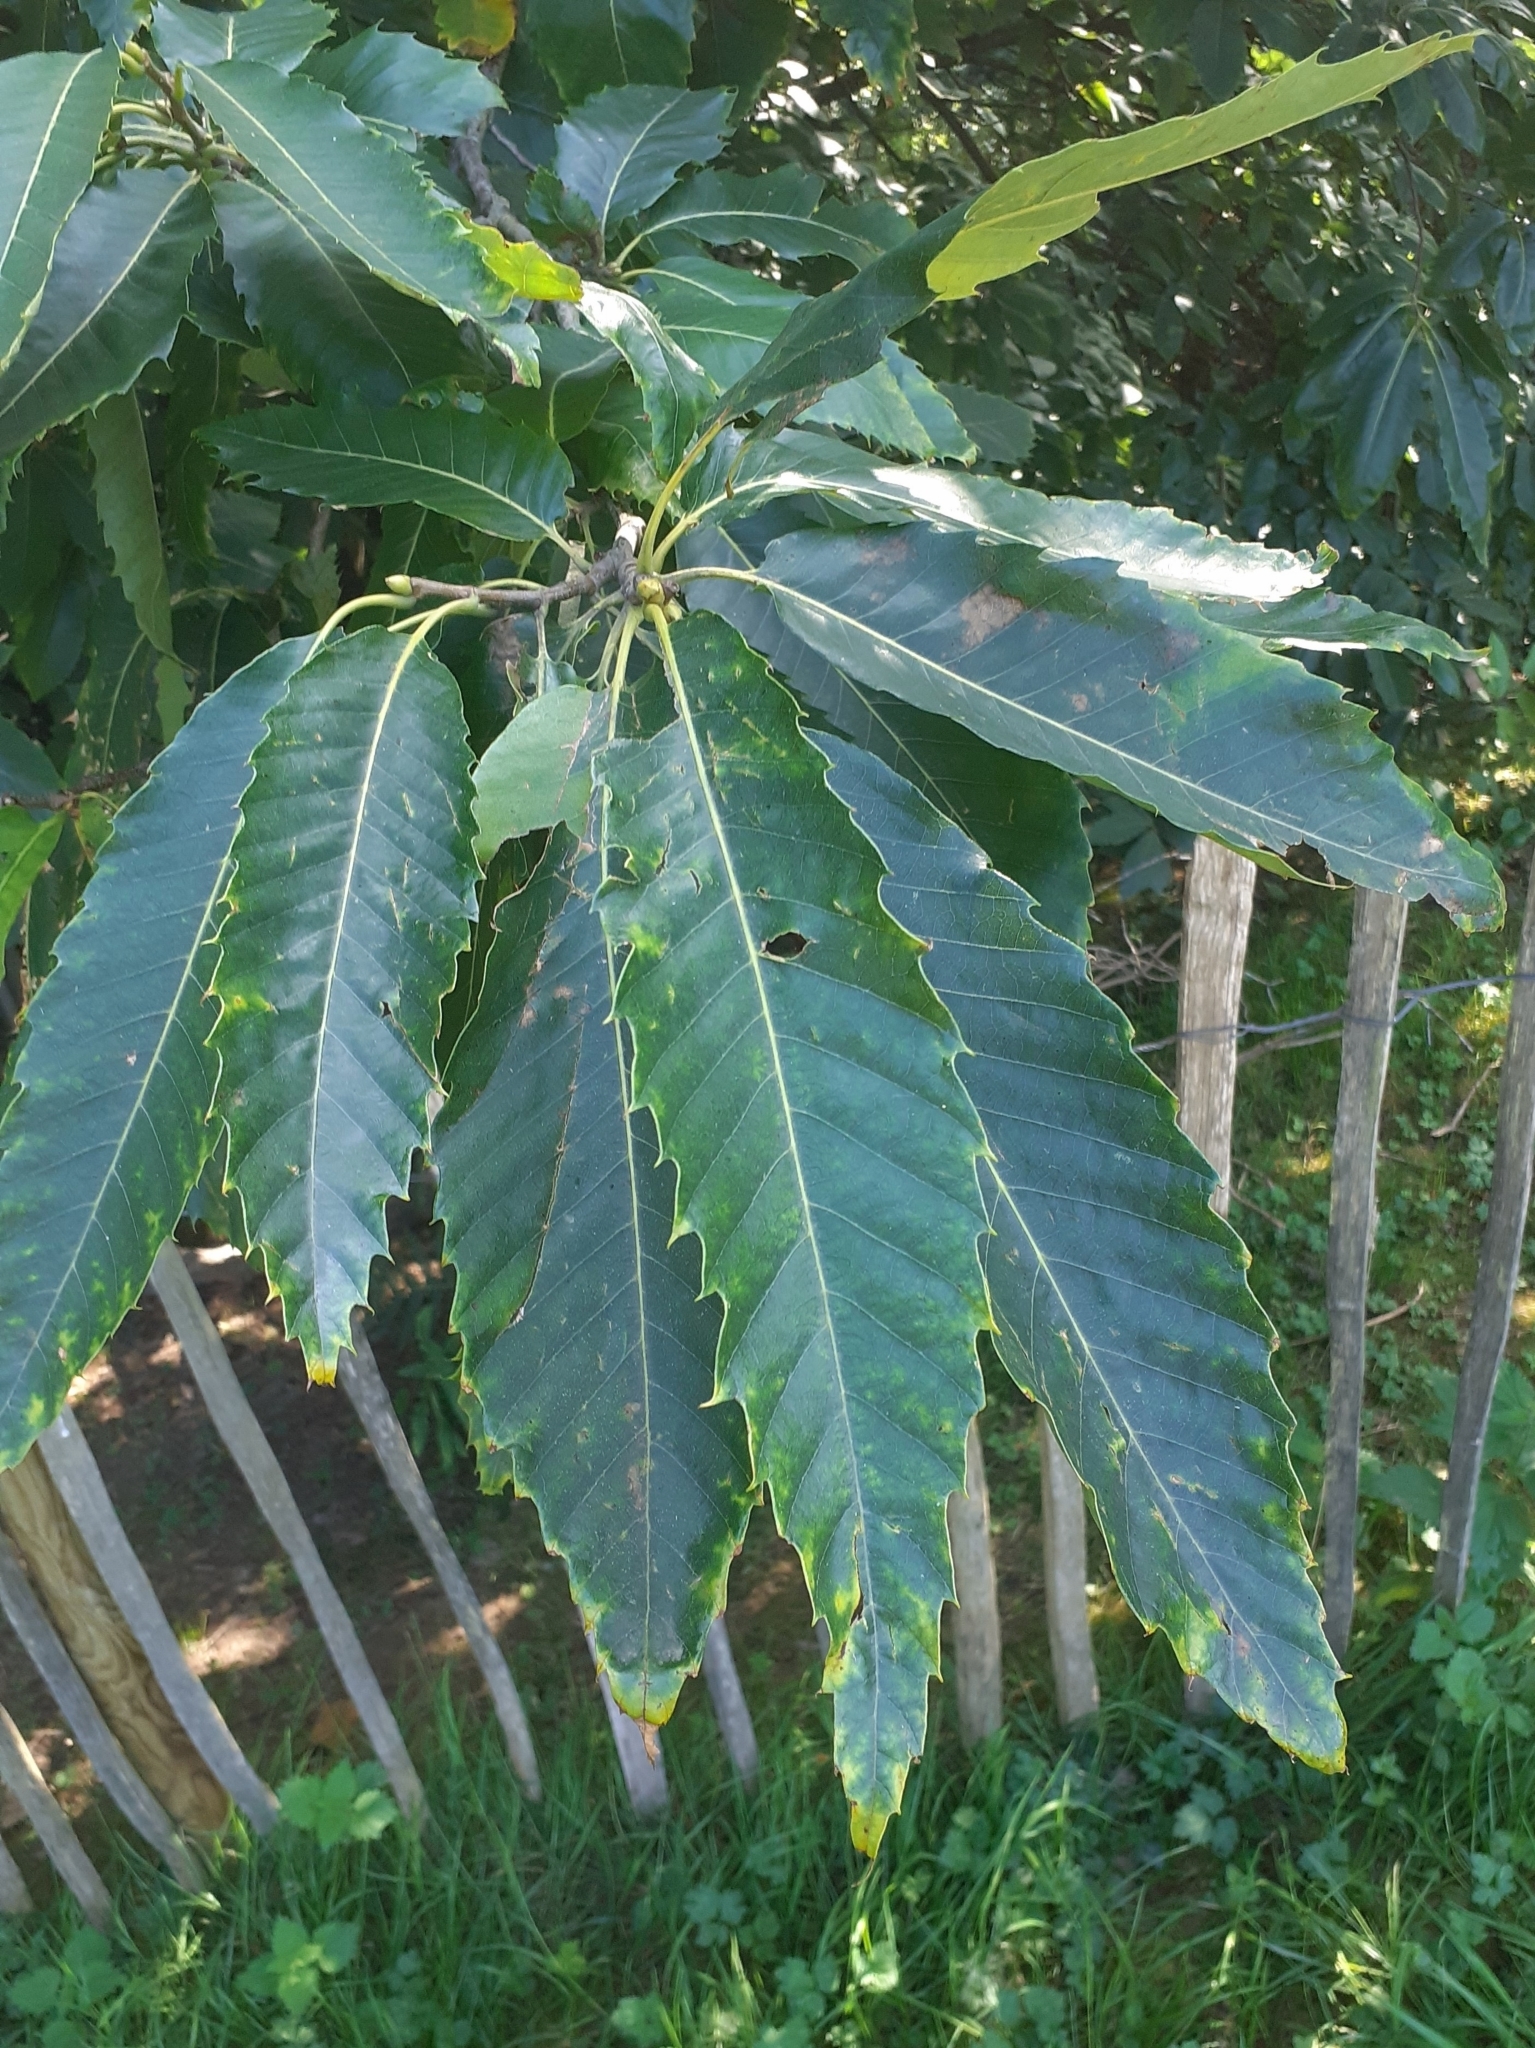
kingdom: Plantae
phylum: Tracheophyta
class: Magnoliopsida
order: Fagales
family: Fagaceae
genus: Castanea
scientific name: Castanea sativa
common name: Sweet chestnut
